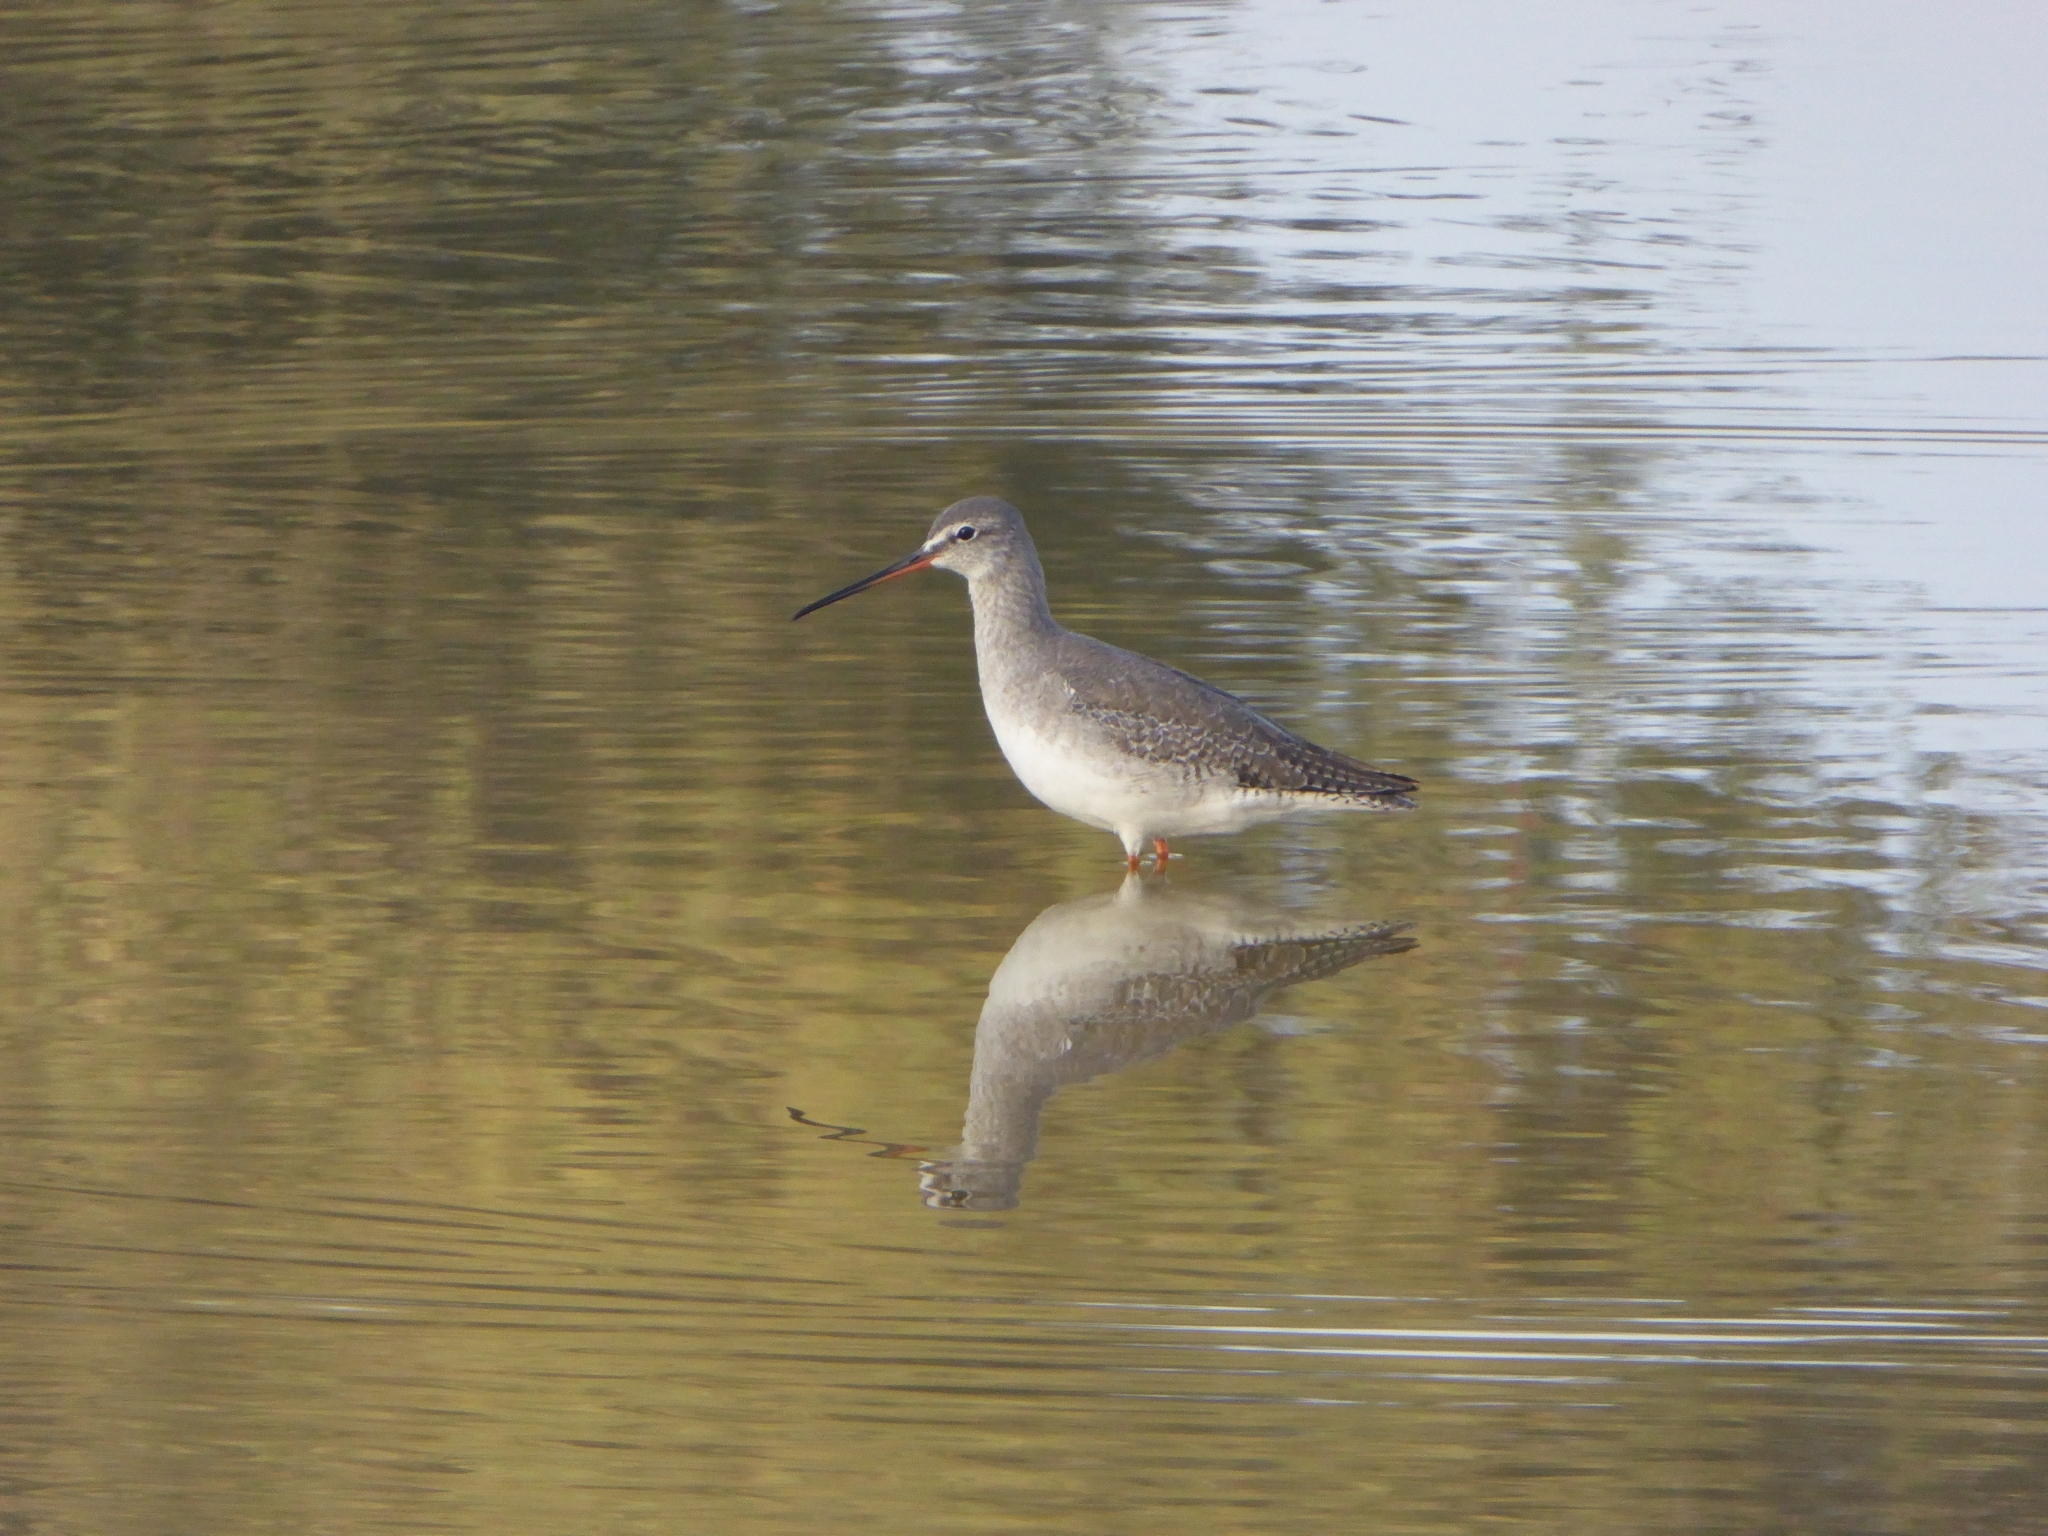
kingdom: Animalia
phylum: Chordata
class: Aves
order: Charadriiformes
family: Scolopacidae
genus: Tringa
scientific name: Tringa totanus
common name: Common redshank
